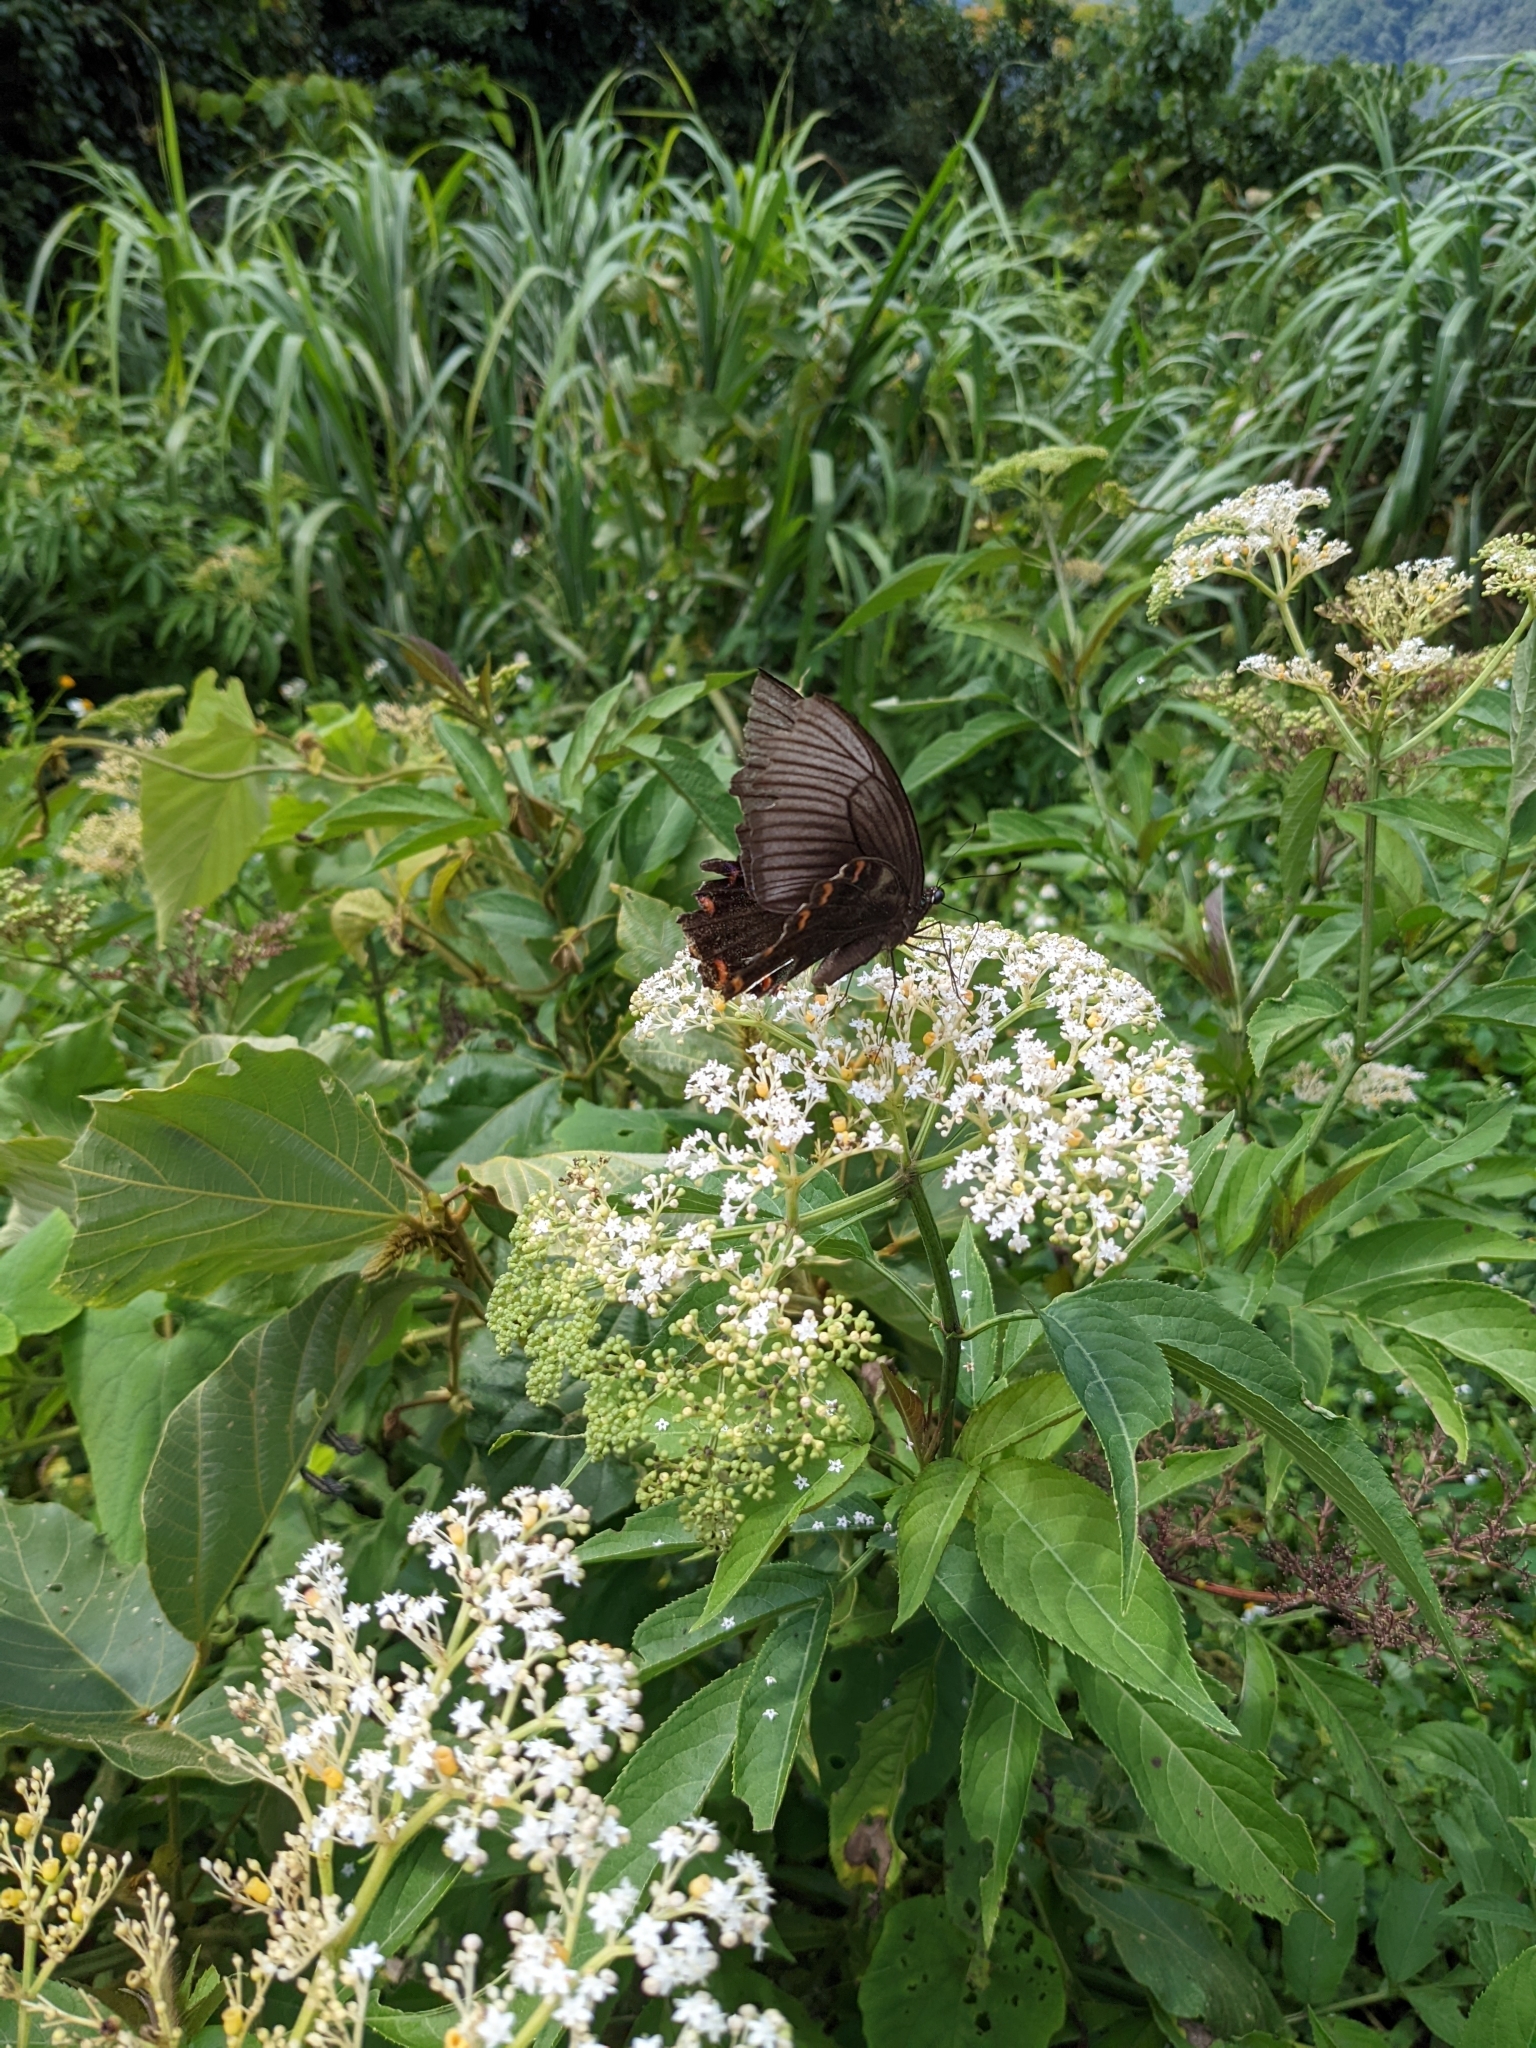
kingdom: Plantae
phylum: Tracheophyta
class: Magnoliopsida
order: Dipsacales
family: Viburnaceae
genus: Sambucus
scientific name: Sambucus javanica
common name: Chinese elder
